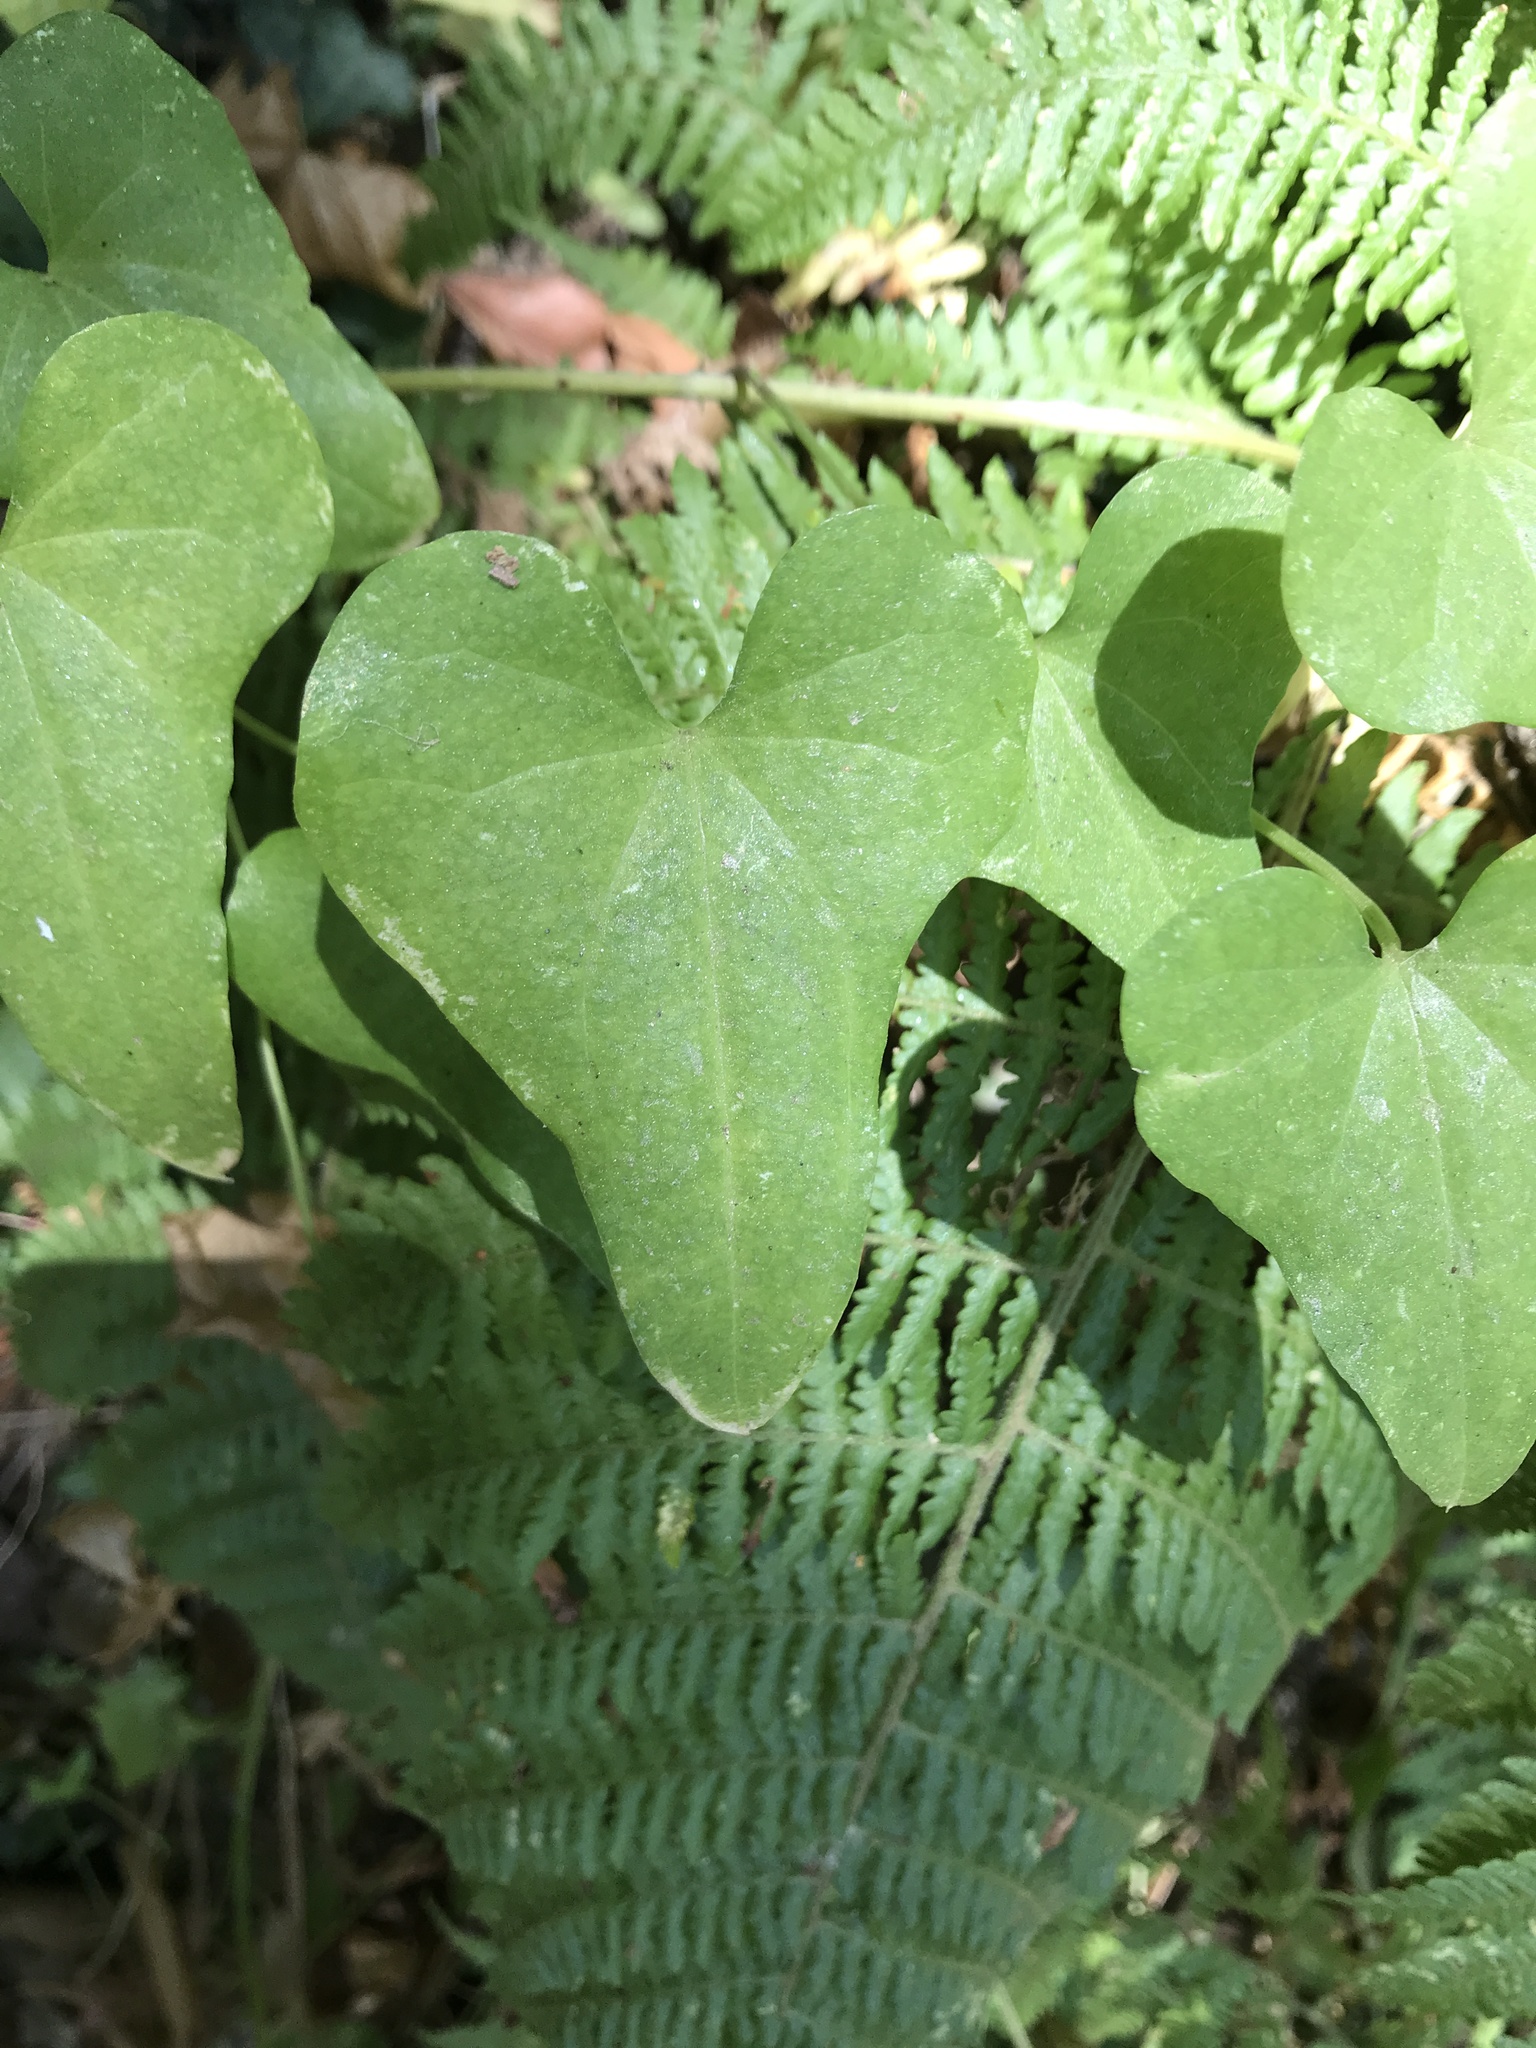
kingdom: Plantae
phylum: Tracheophyta
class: Liliopsida
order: Dioscoreales
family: Dioscoreaceae
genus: Dioscorea
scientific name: Dioscorea communis
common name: Black-bindweed
